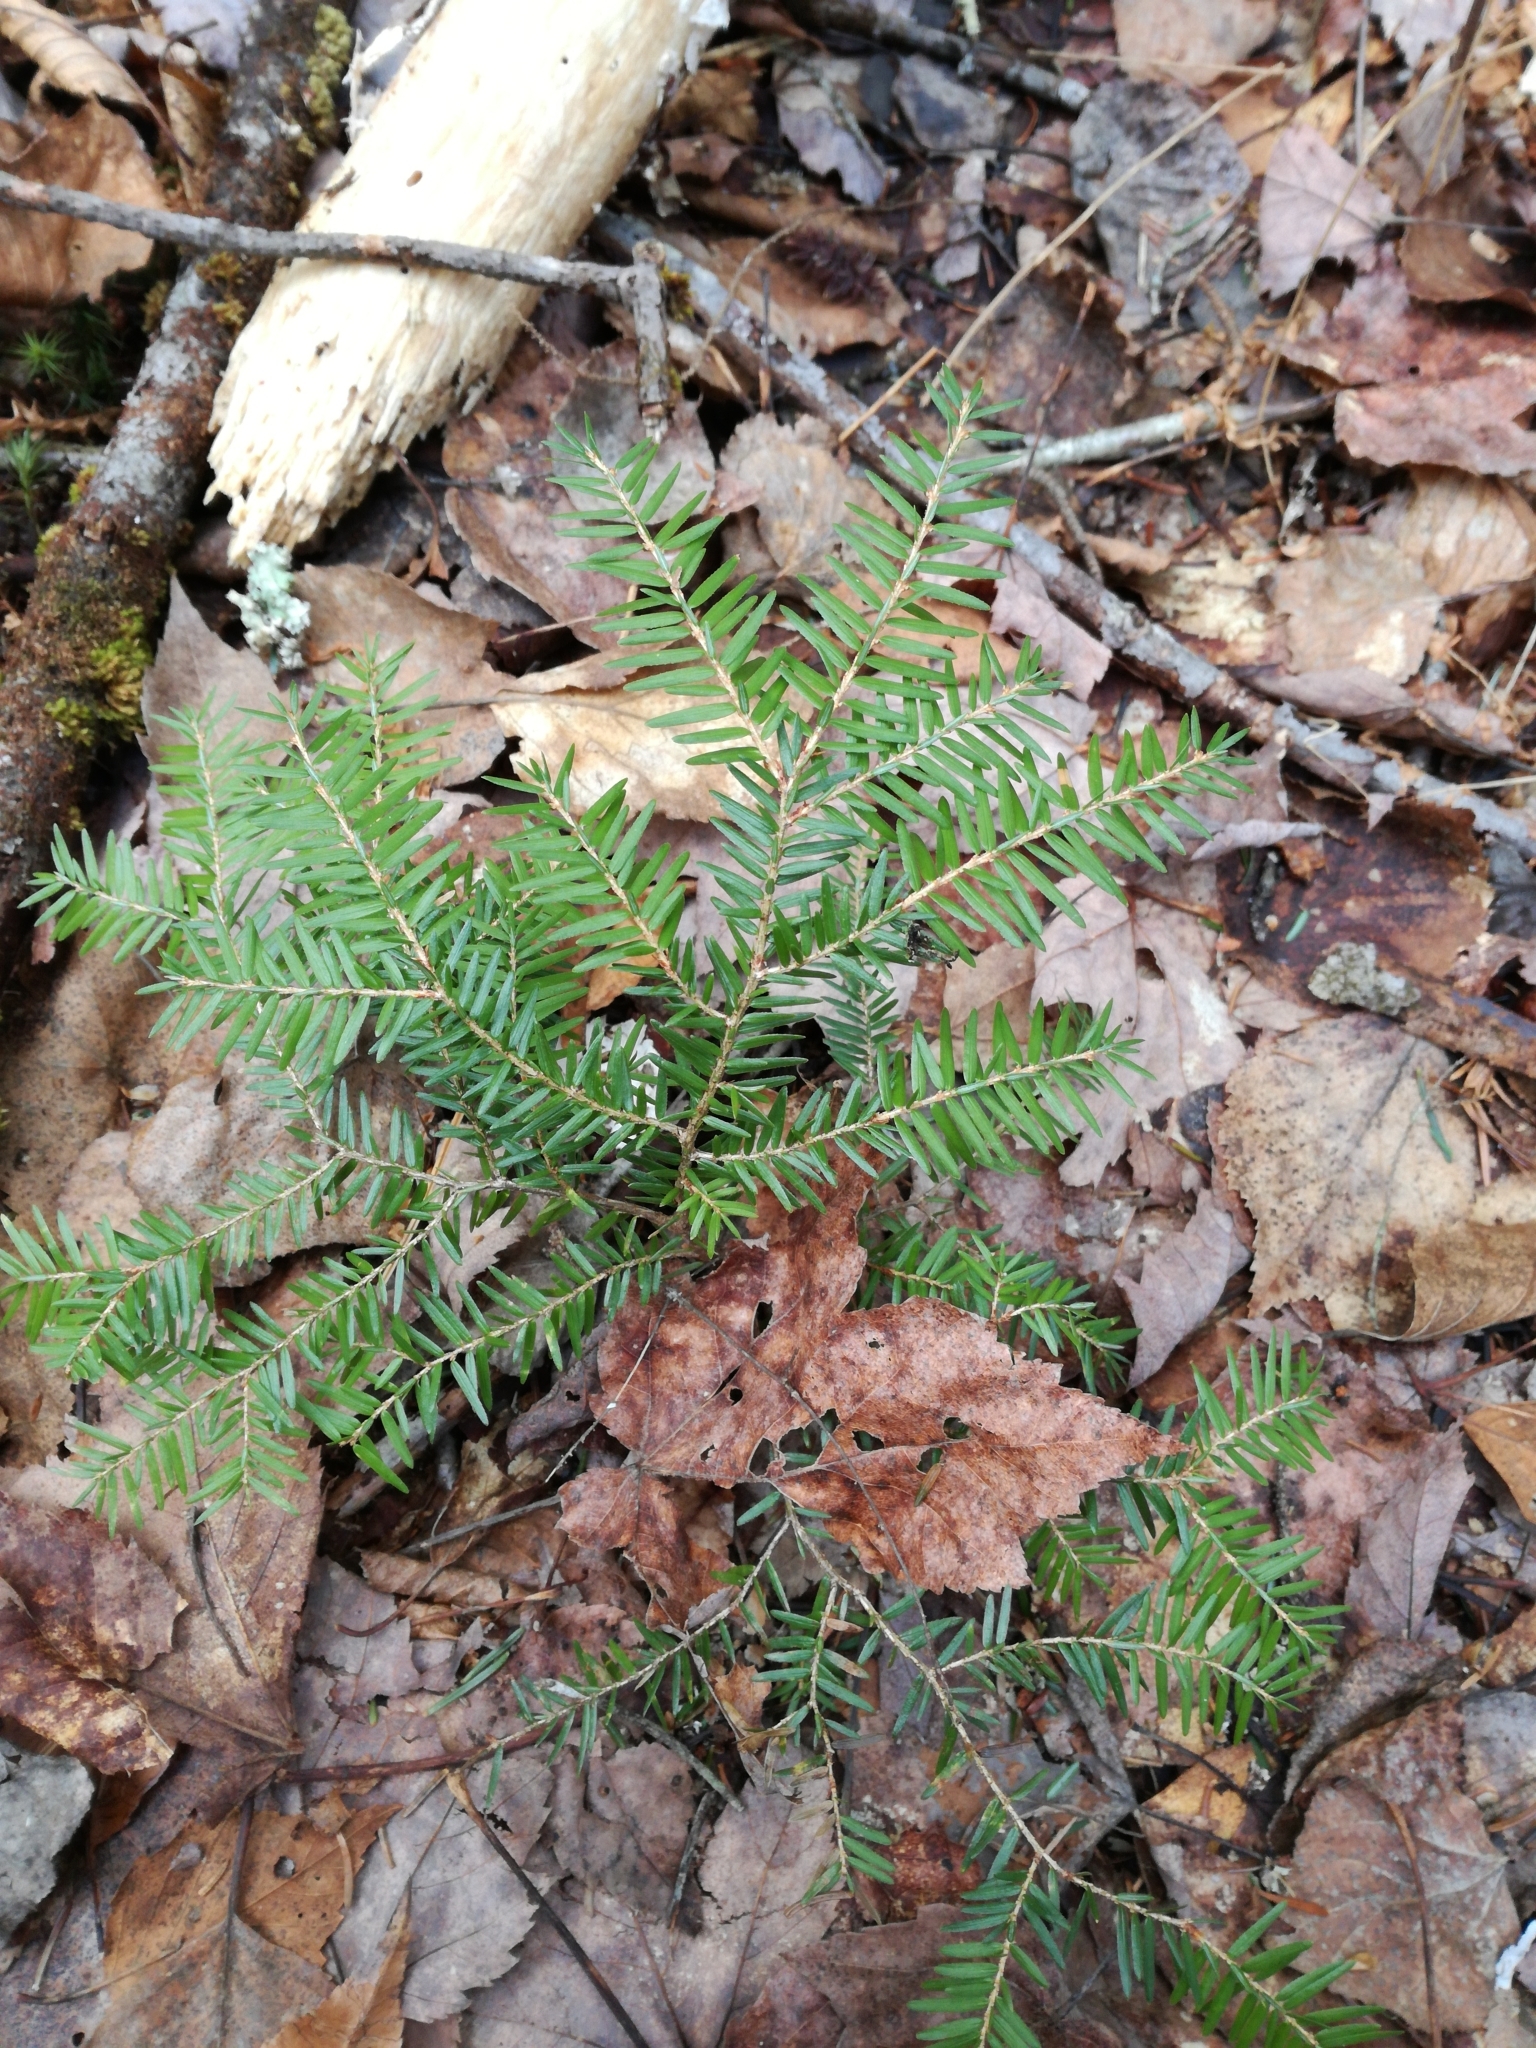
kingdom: Plantae
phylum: Tracheophyta
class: Pinopsida
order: Pinales
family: Pinaceae
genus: Tsuga
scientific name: Tsuga canadensis
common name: Eastern hemlock
